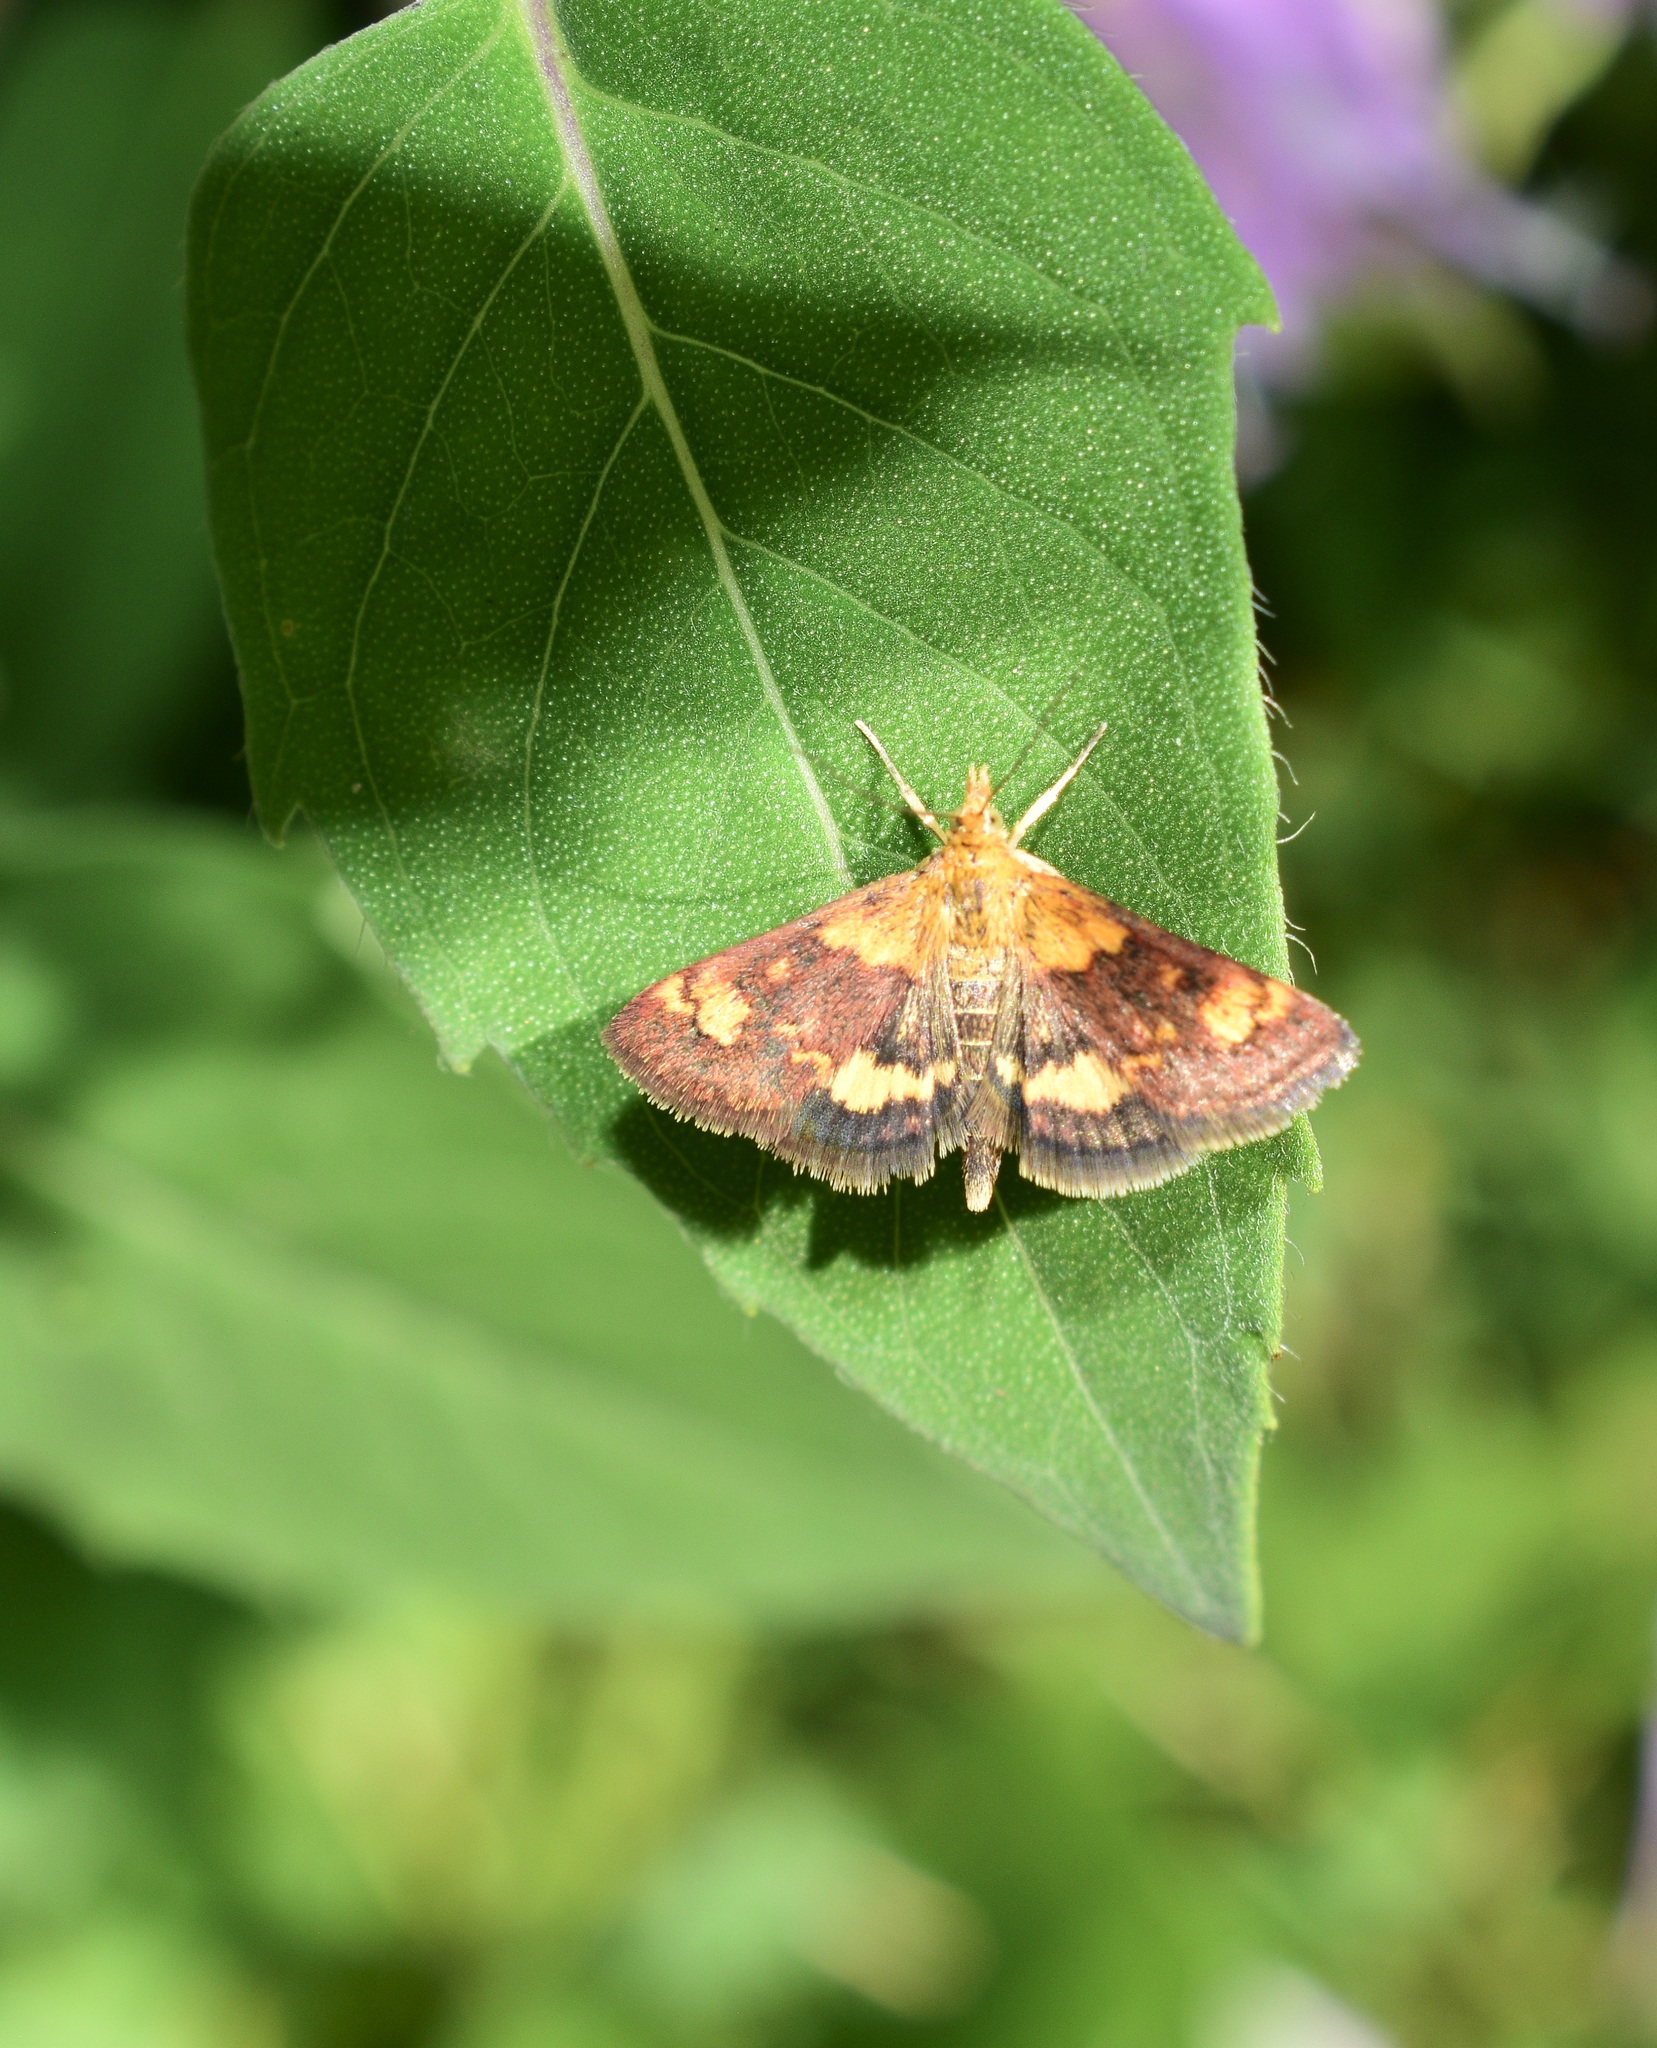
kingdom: Animalia
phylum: Arthropoda
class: Insecta
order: Lepidoptera
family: Crambidae
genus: Pyrausta
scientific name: Pyrausta orphisalis
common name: Orange mint moth
